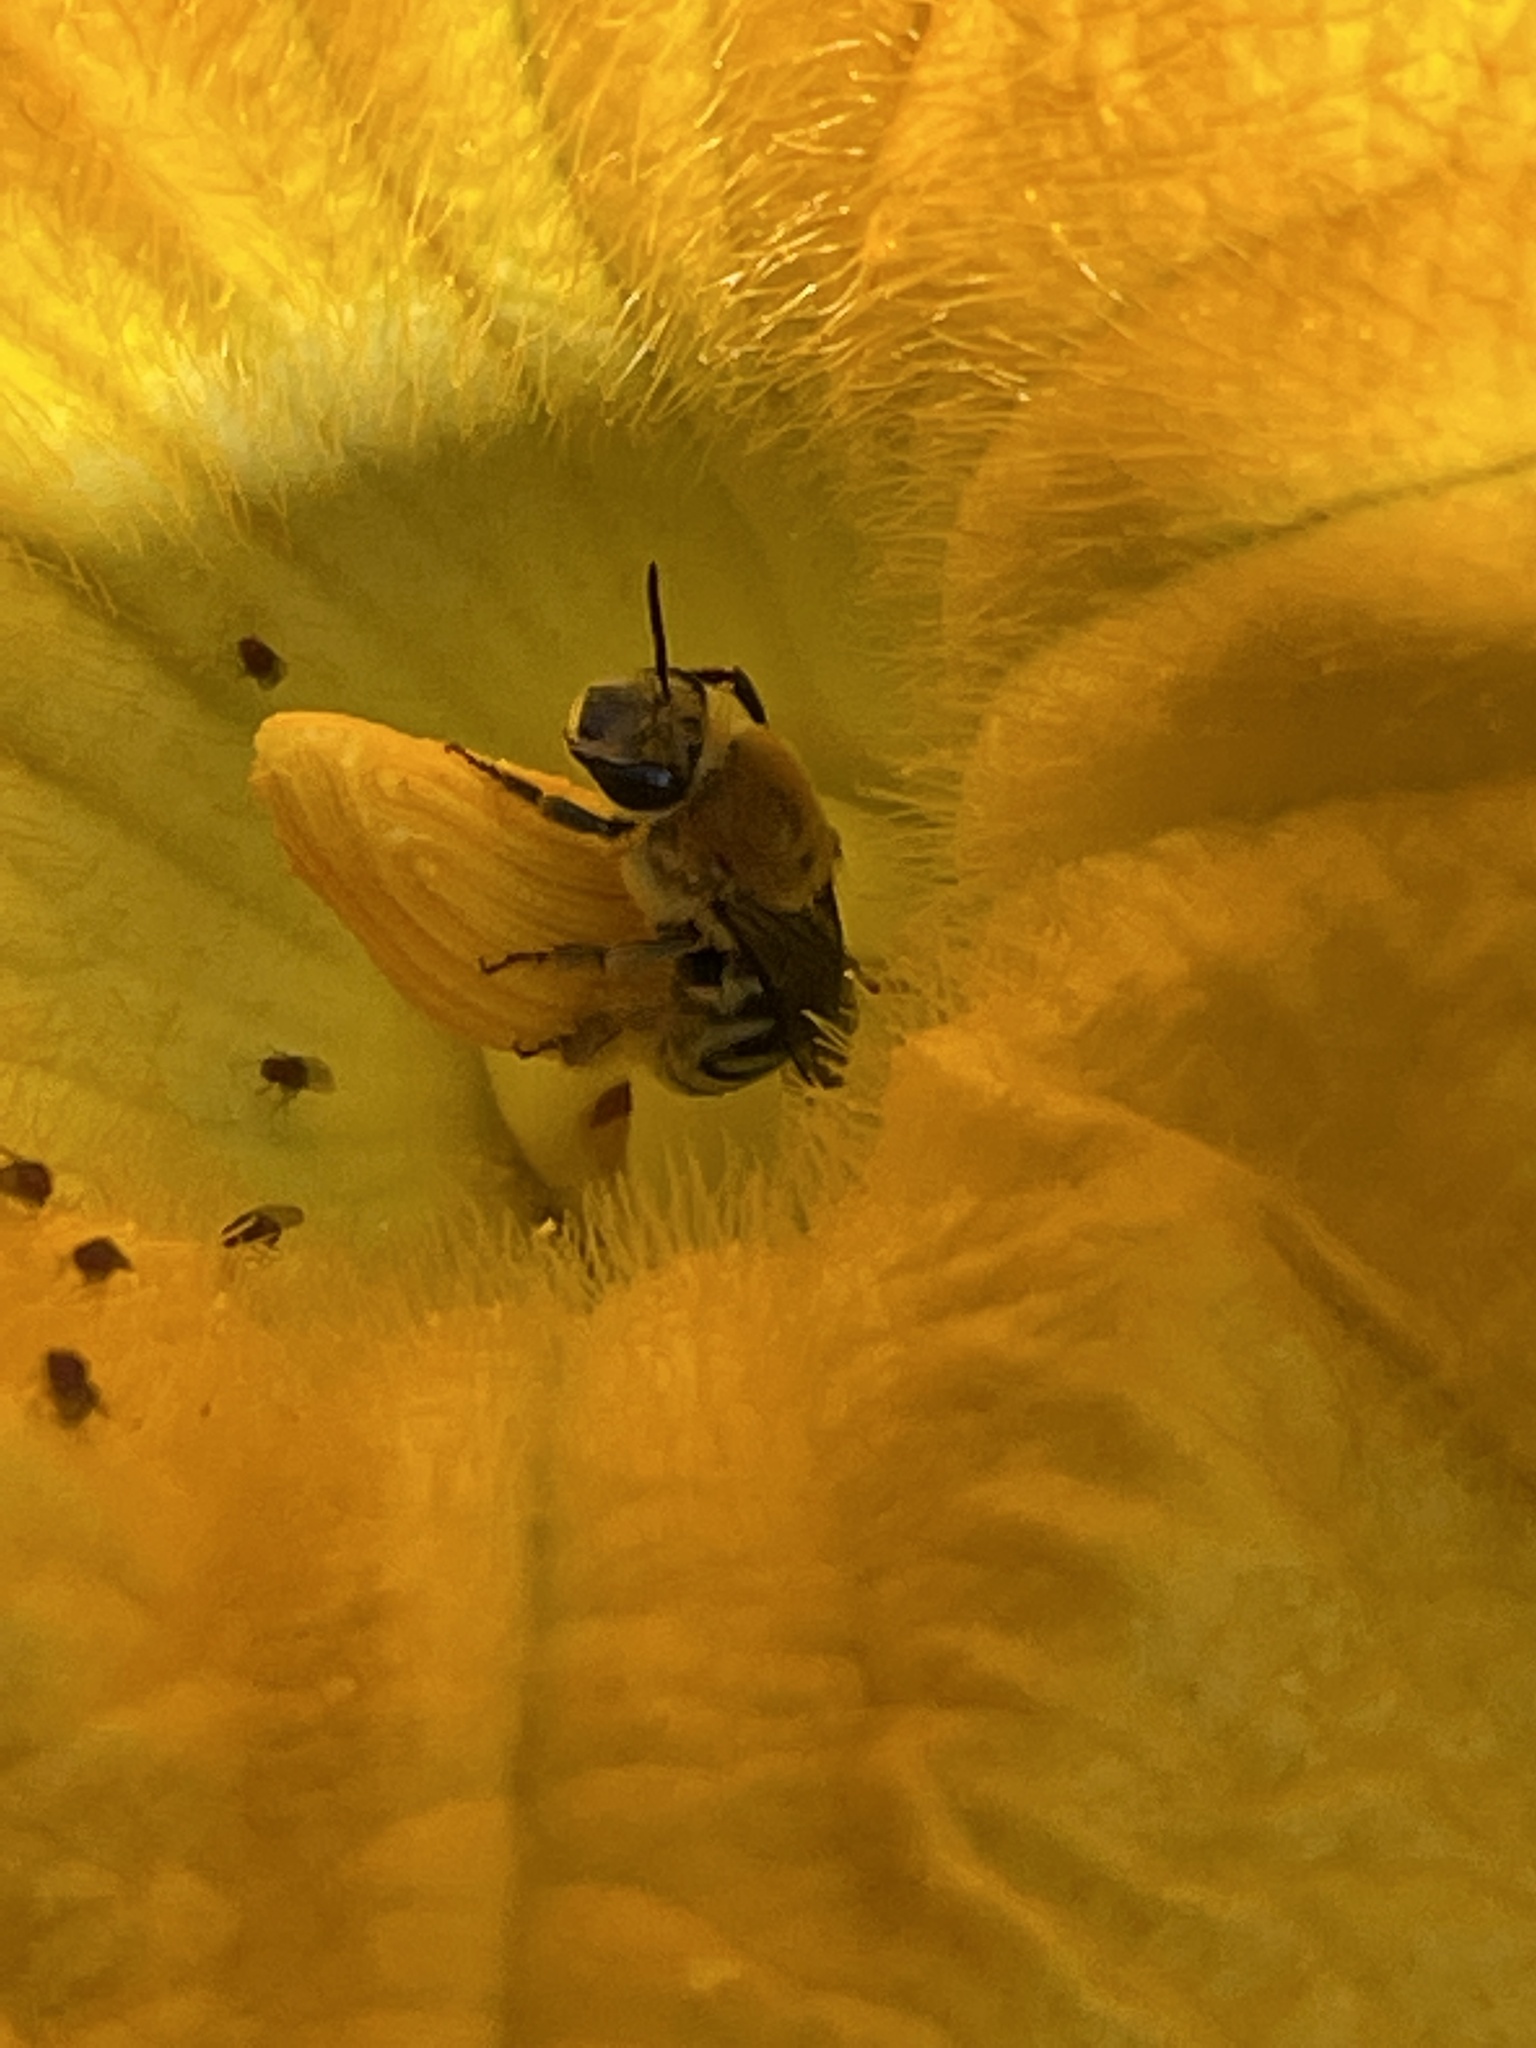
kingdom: Animalia
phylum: Arthropoda
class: Insecta
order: Hymenoptera
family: Apidae
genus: Peponapis
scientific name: Peponapis pruinosa
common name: Pruinose squash bee
